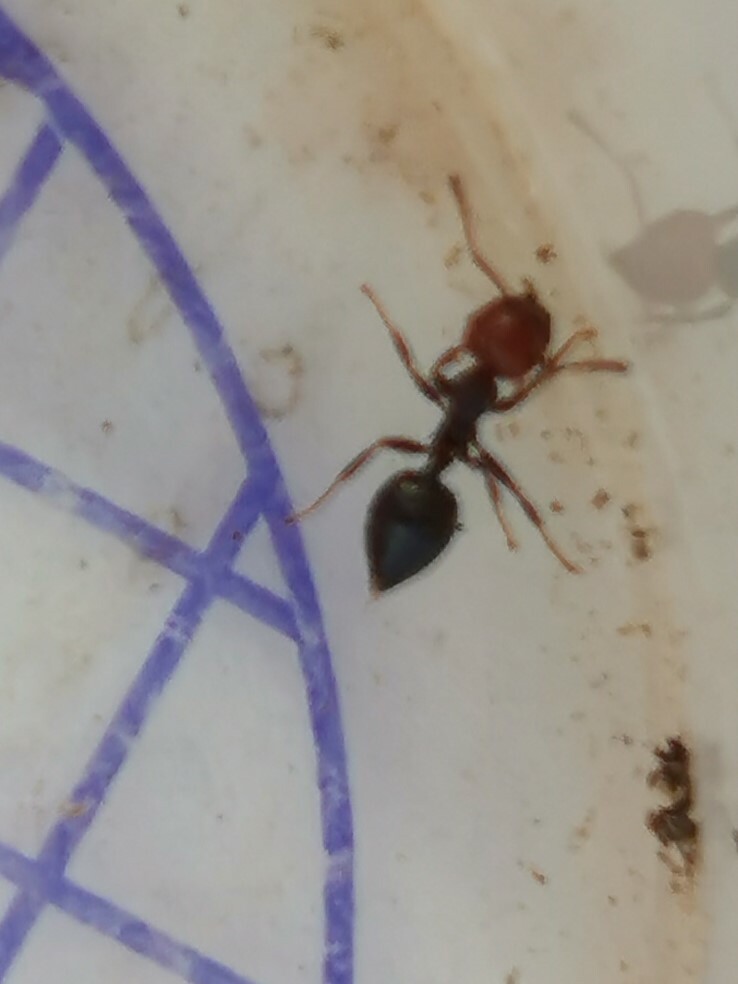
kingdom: Animalia
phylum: Arthropoda
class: Insecta
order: Hymenoptera
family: Formicidae
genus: Crematogaster
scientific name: Crematogaster scutellaris
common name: Fourmi du liège
